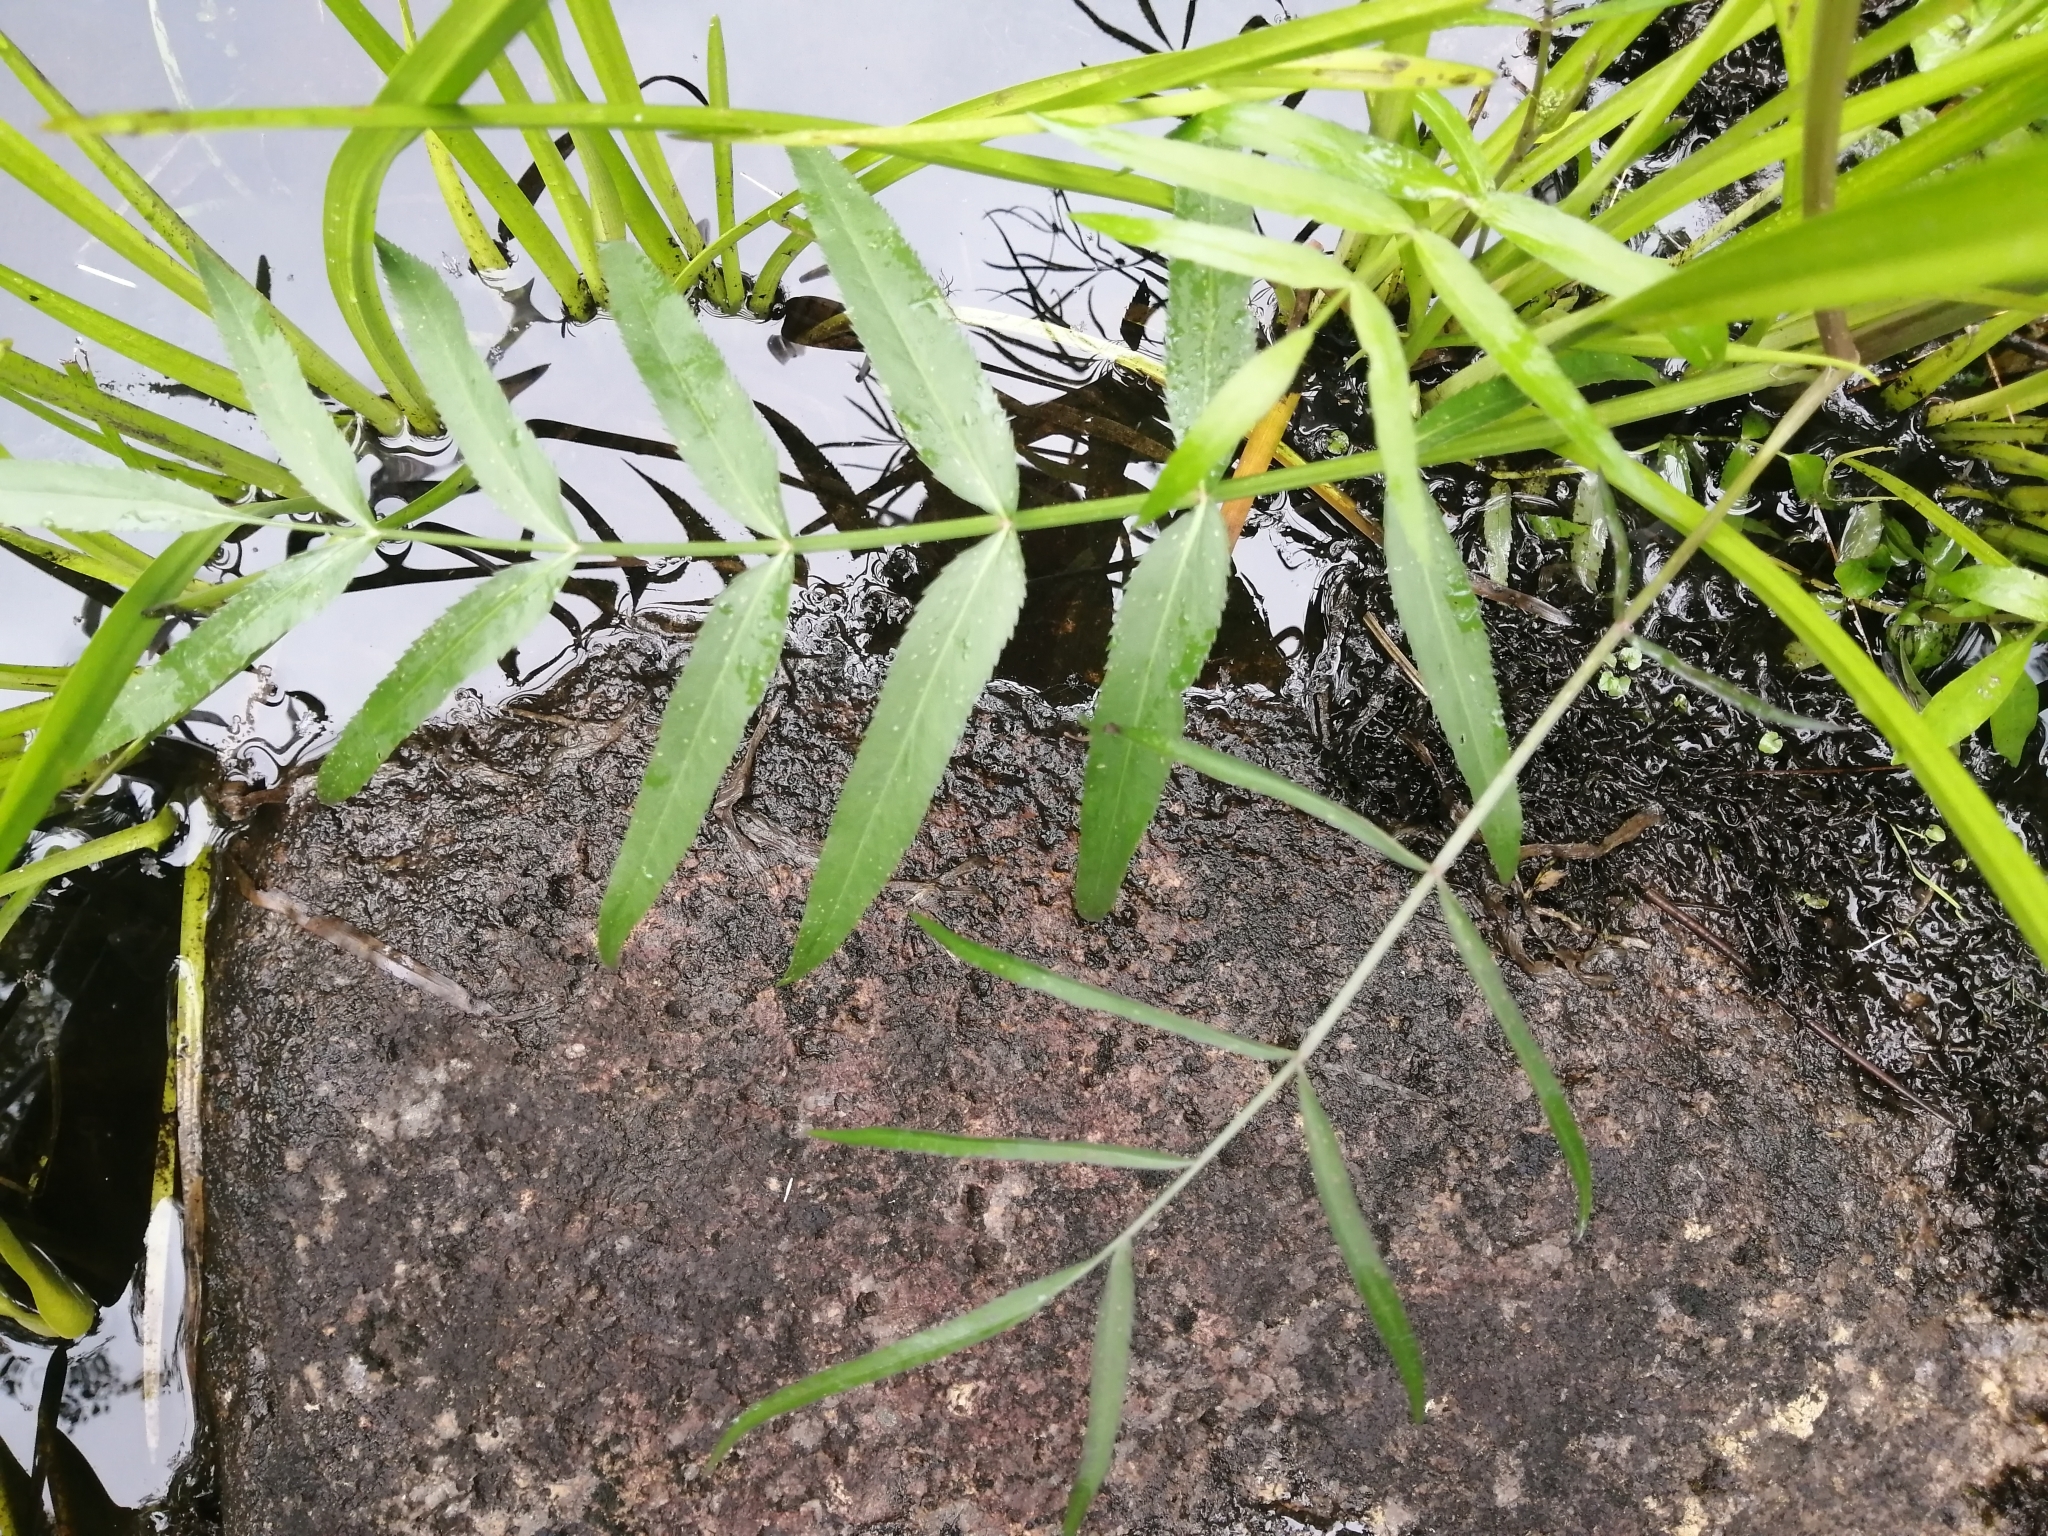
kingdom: Plantae
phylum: Tracheophyta
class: Magnoliopsida
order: Apiales
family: Apiaceae
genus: Sium
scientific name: Sium suave
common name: Hemlock water-parsnip
